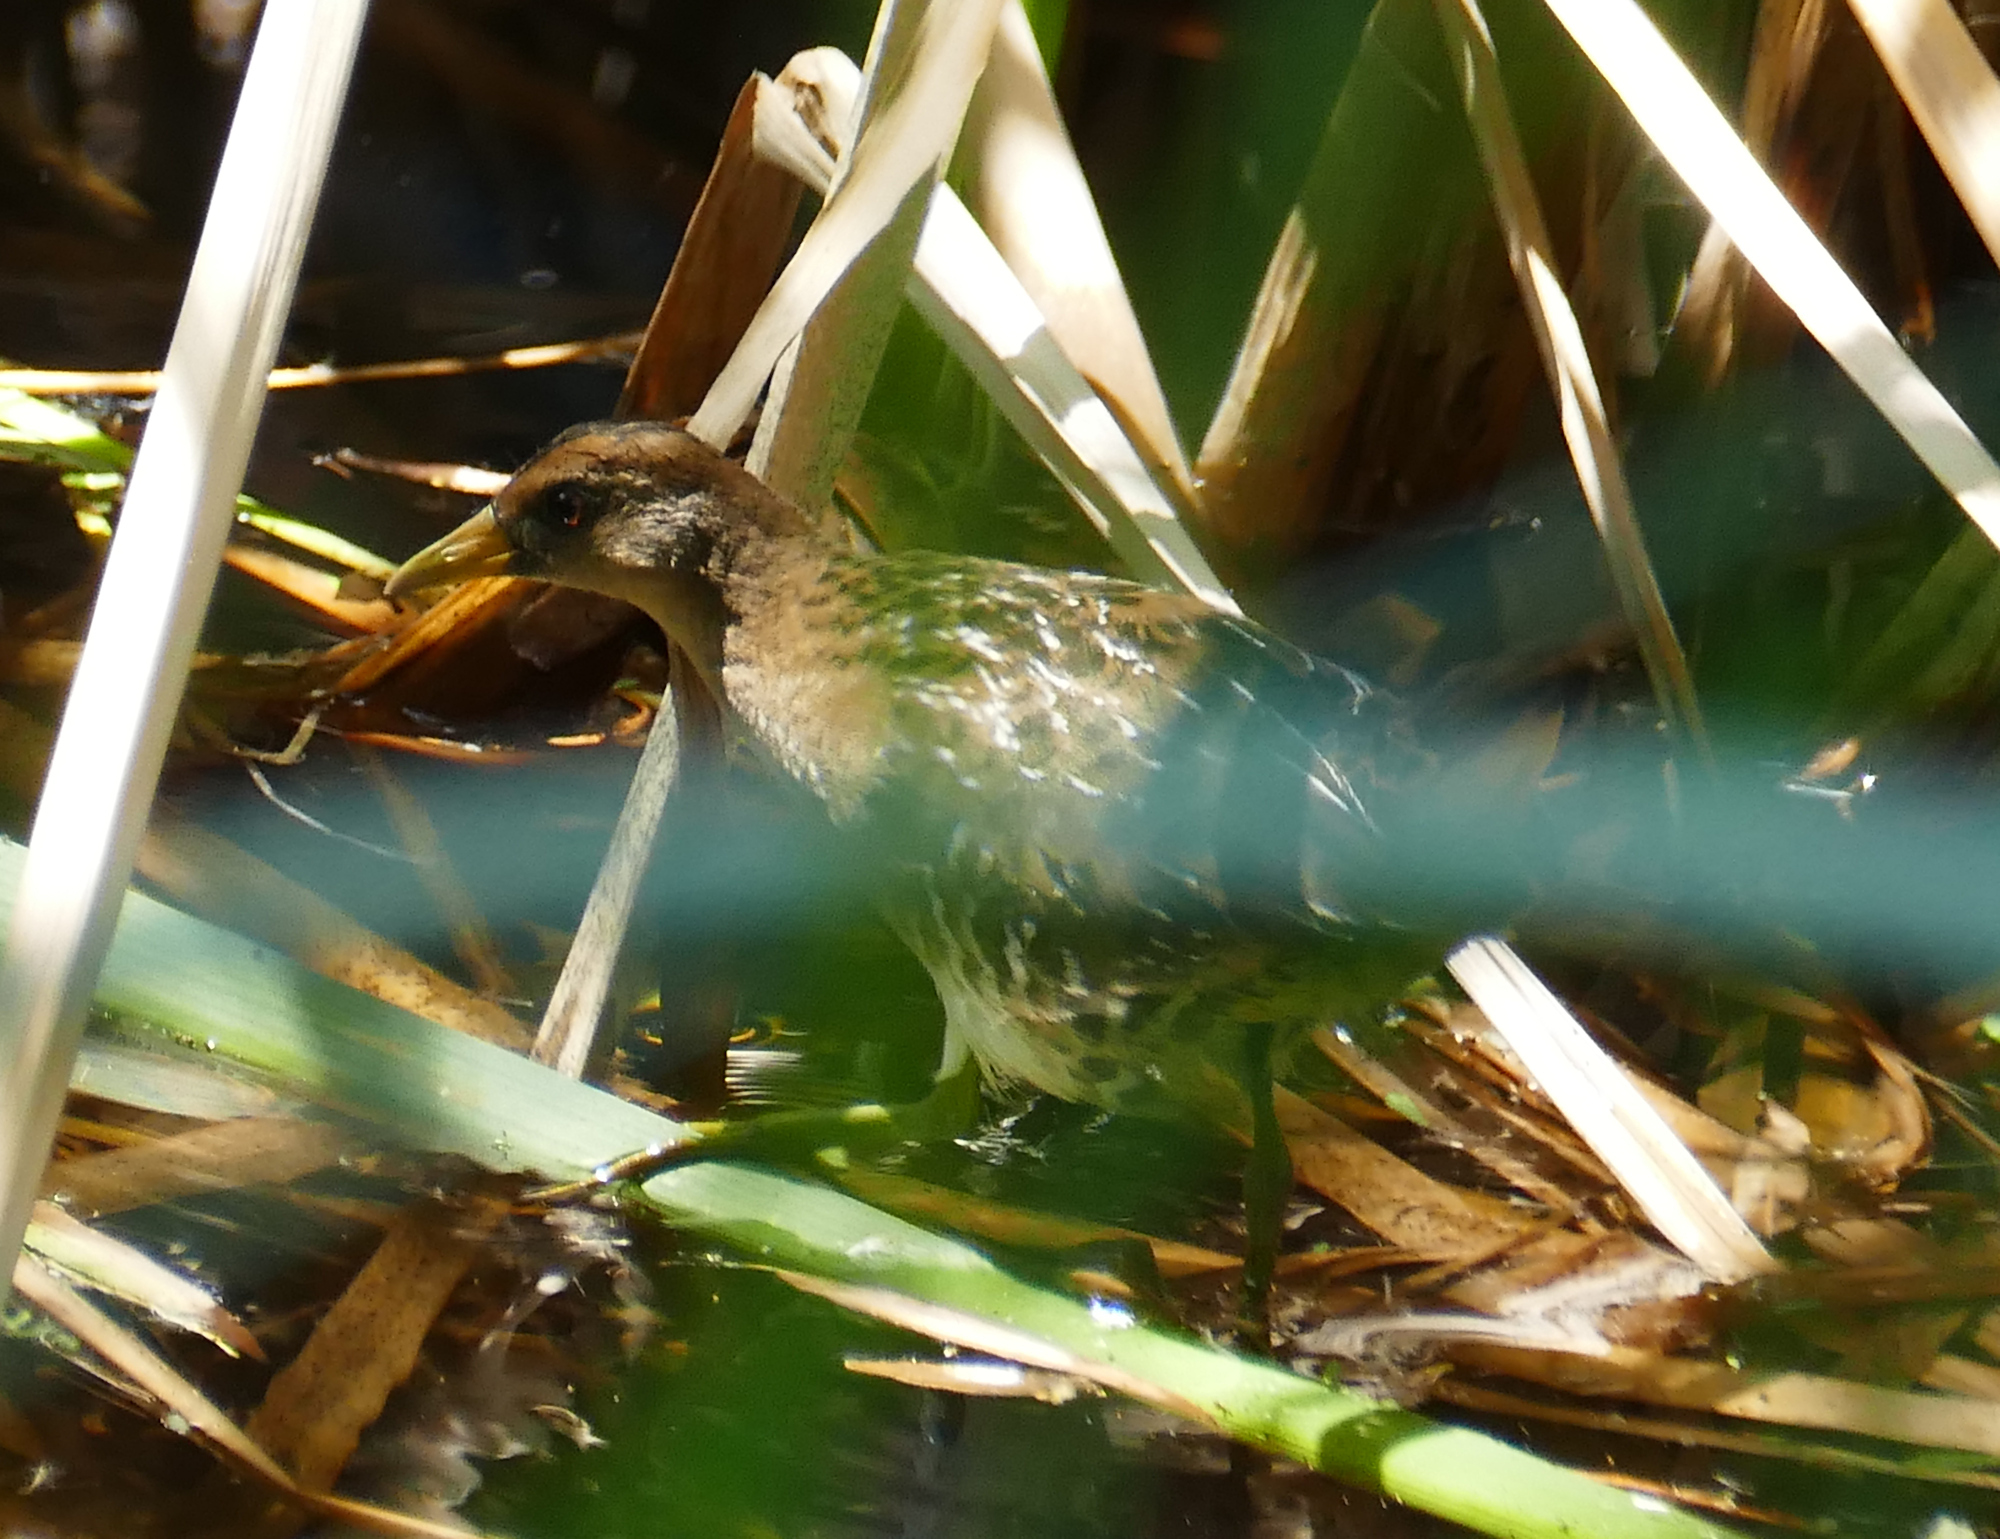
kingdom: Animalia
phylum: Chordata
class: Aves
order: Gruiformes
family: Rallidae
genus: Porzana
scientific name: Porzana carolina
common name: Sora
